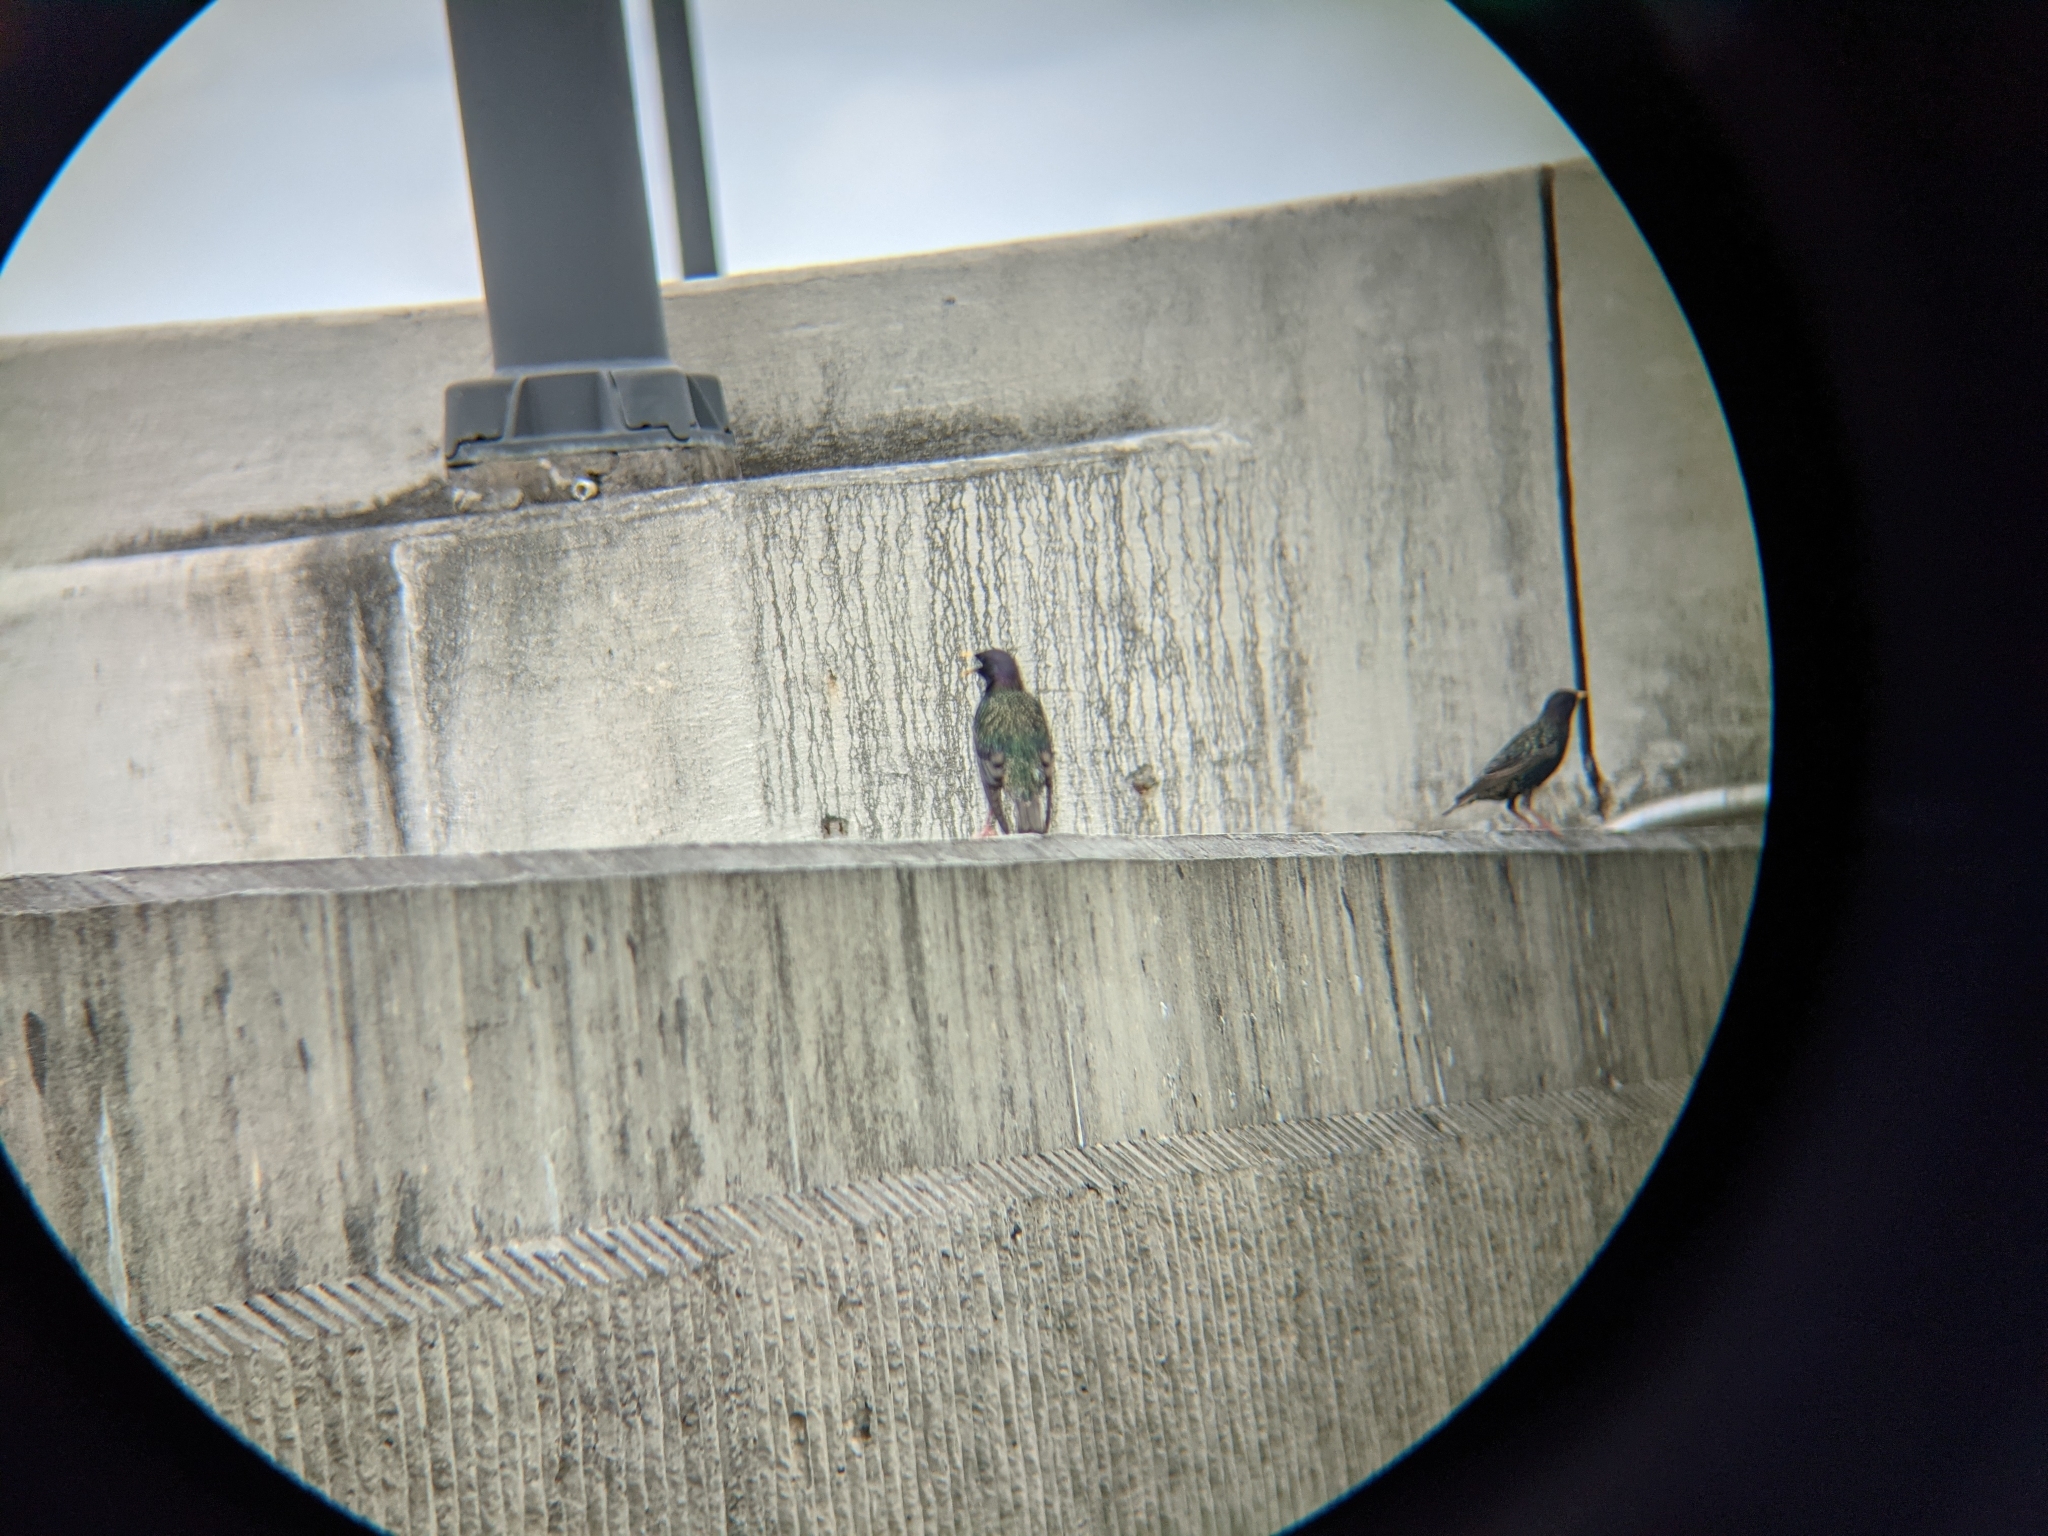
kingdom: Animalia
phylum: Chordata
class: Aves
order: Passeriformes
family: Sturnidae
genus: Sturnus
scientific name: Sturnus vulgaris
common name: Common starling
